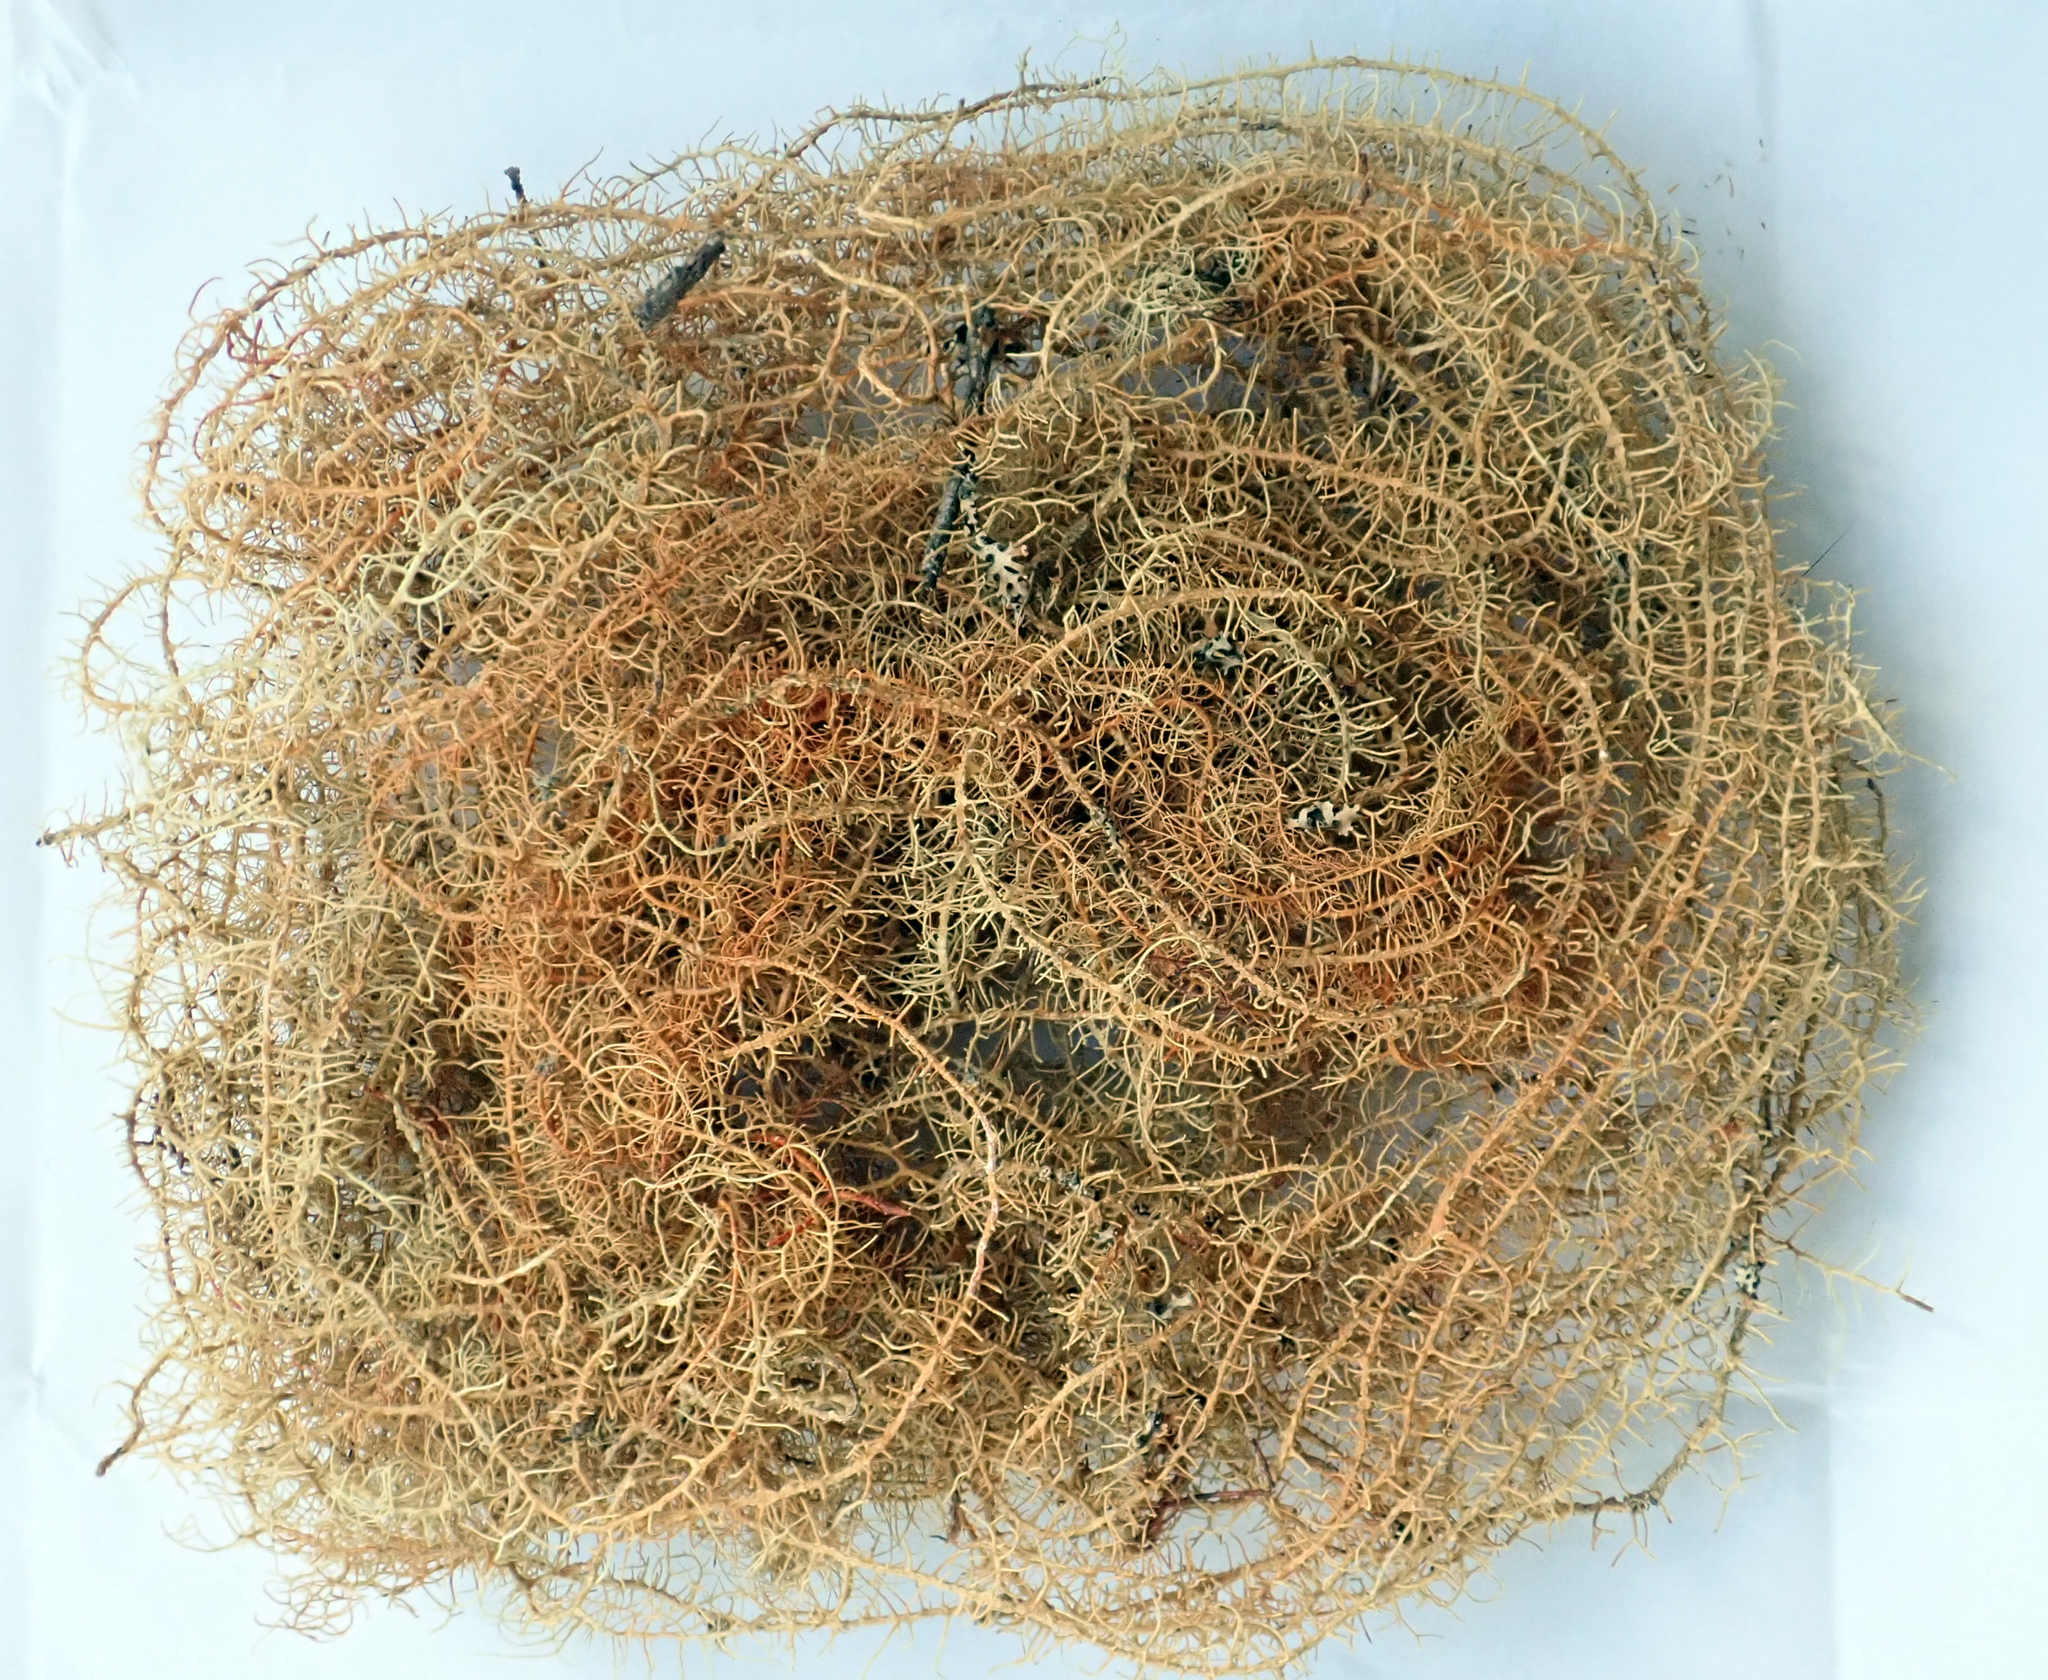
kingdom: Fungi
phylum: Ascomycota
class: Lecanoromycetes
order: Lecanorales
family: Parmeliaceae
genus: Usnea
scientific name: Usnea angulata
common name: Old-man’s beard lichen
